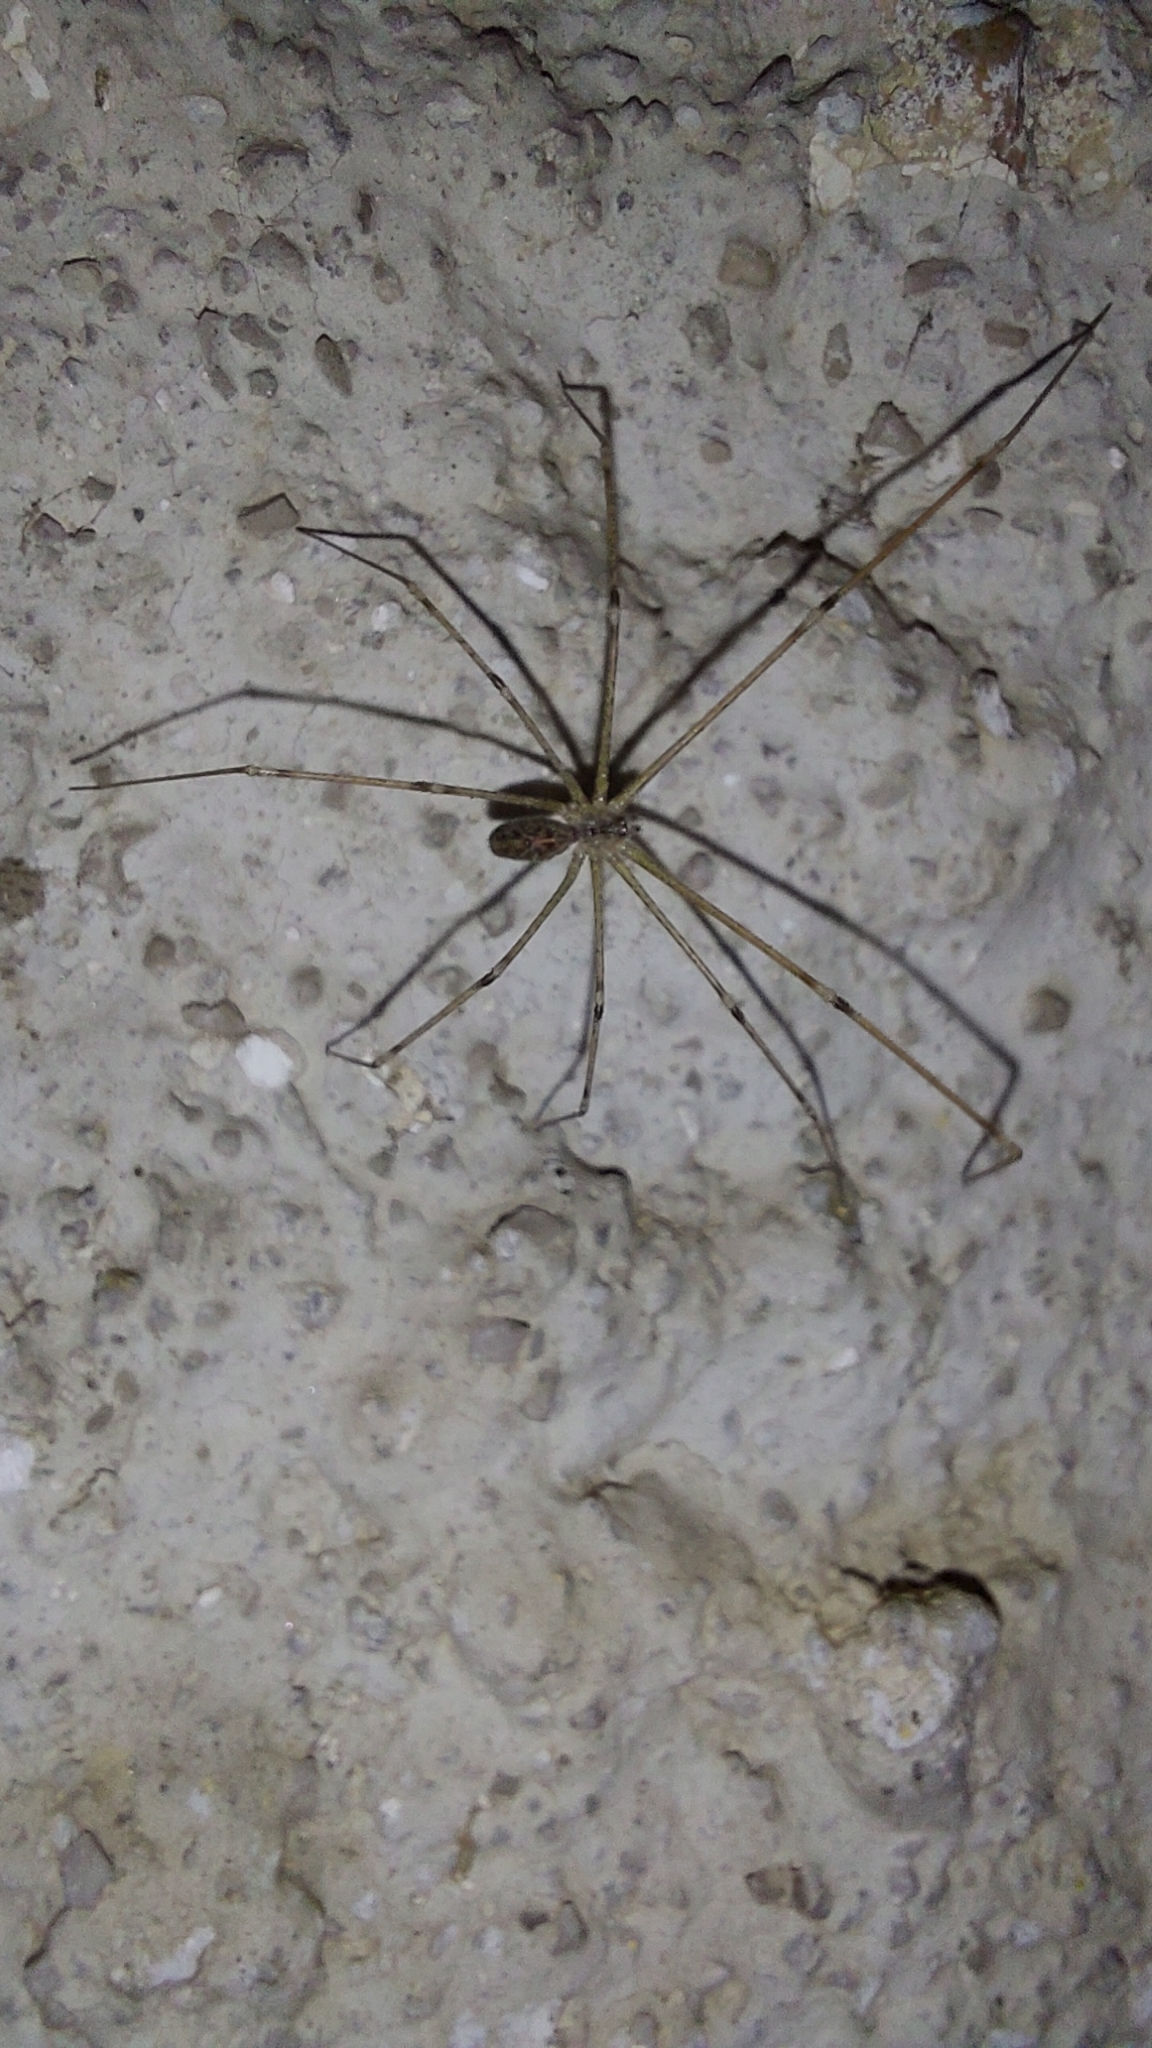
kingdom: Animalia
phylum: Arthropoda
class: Arachnida
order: Araneae
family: Pholcidae
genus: Holocnemus
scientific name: Holocnemus pluchei
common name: Marbled cellar spider
